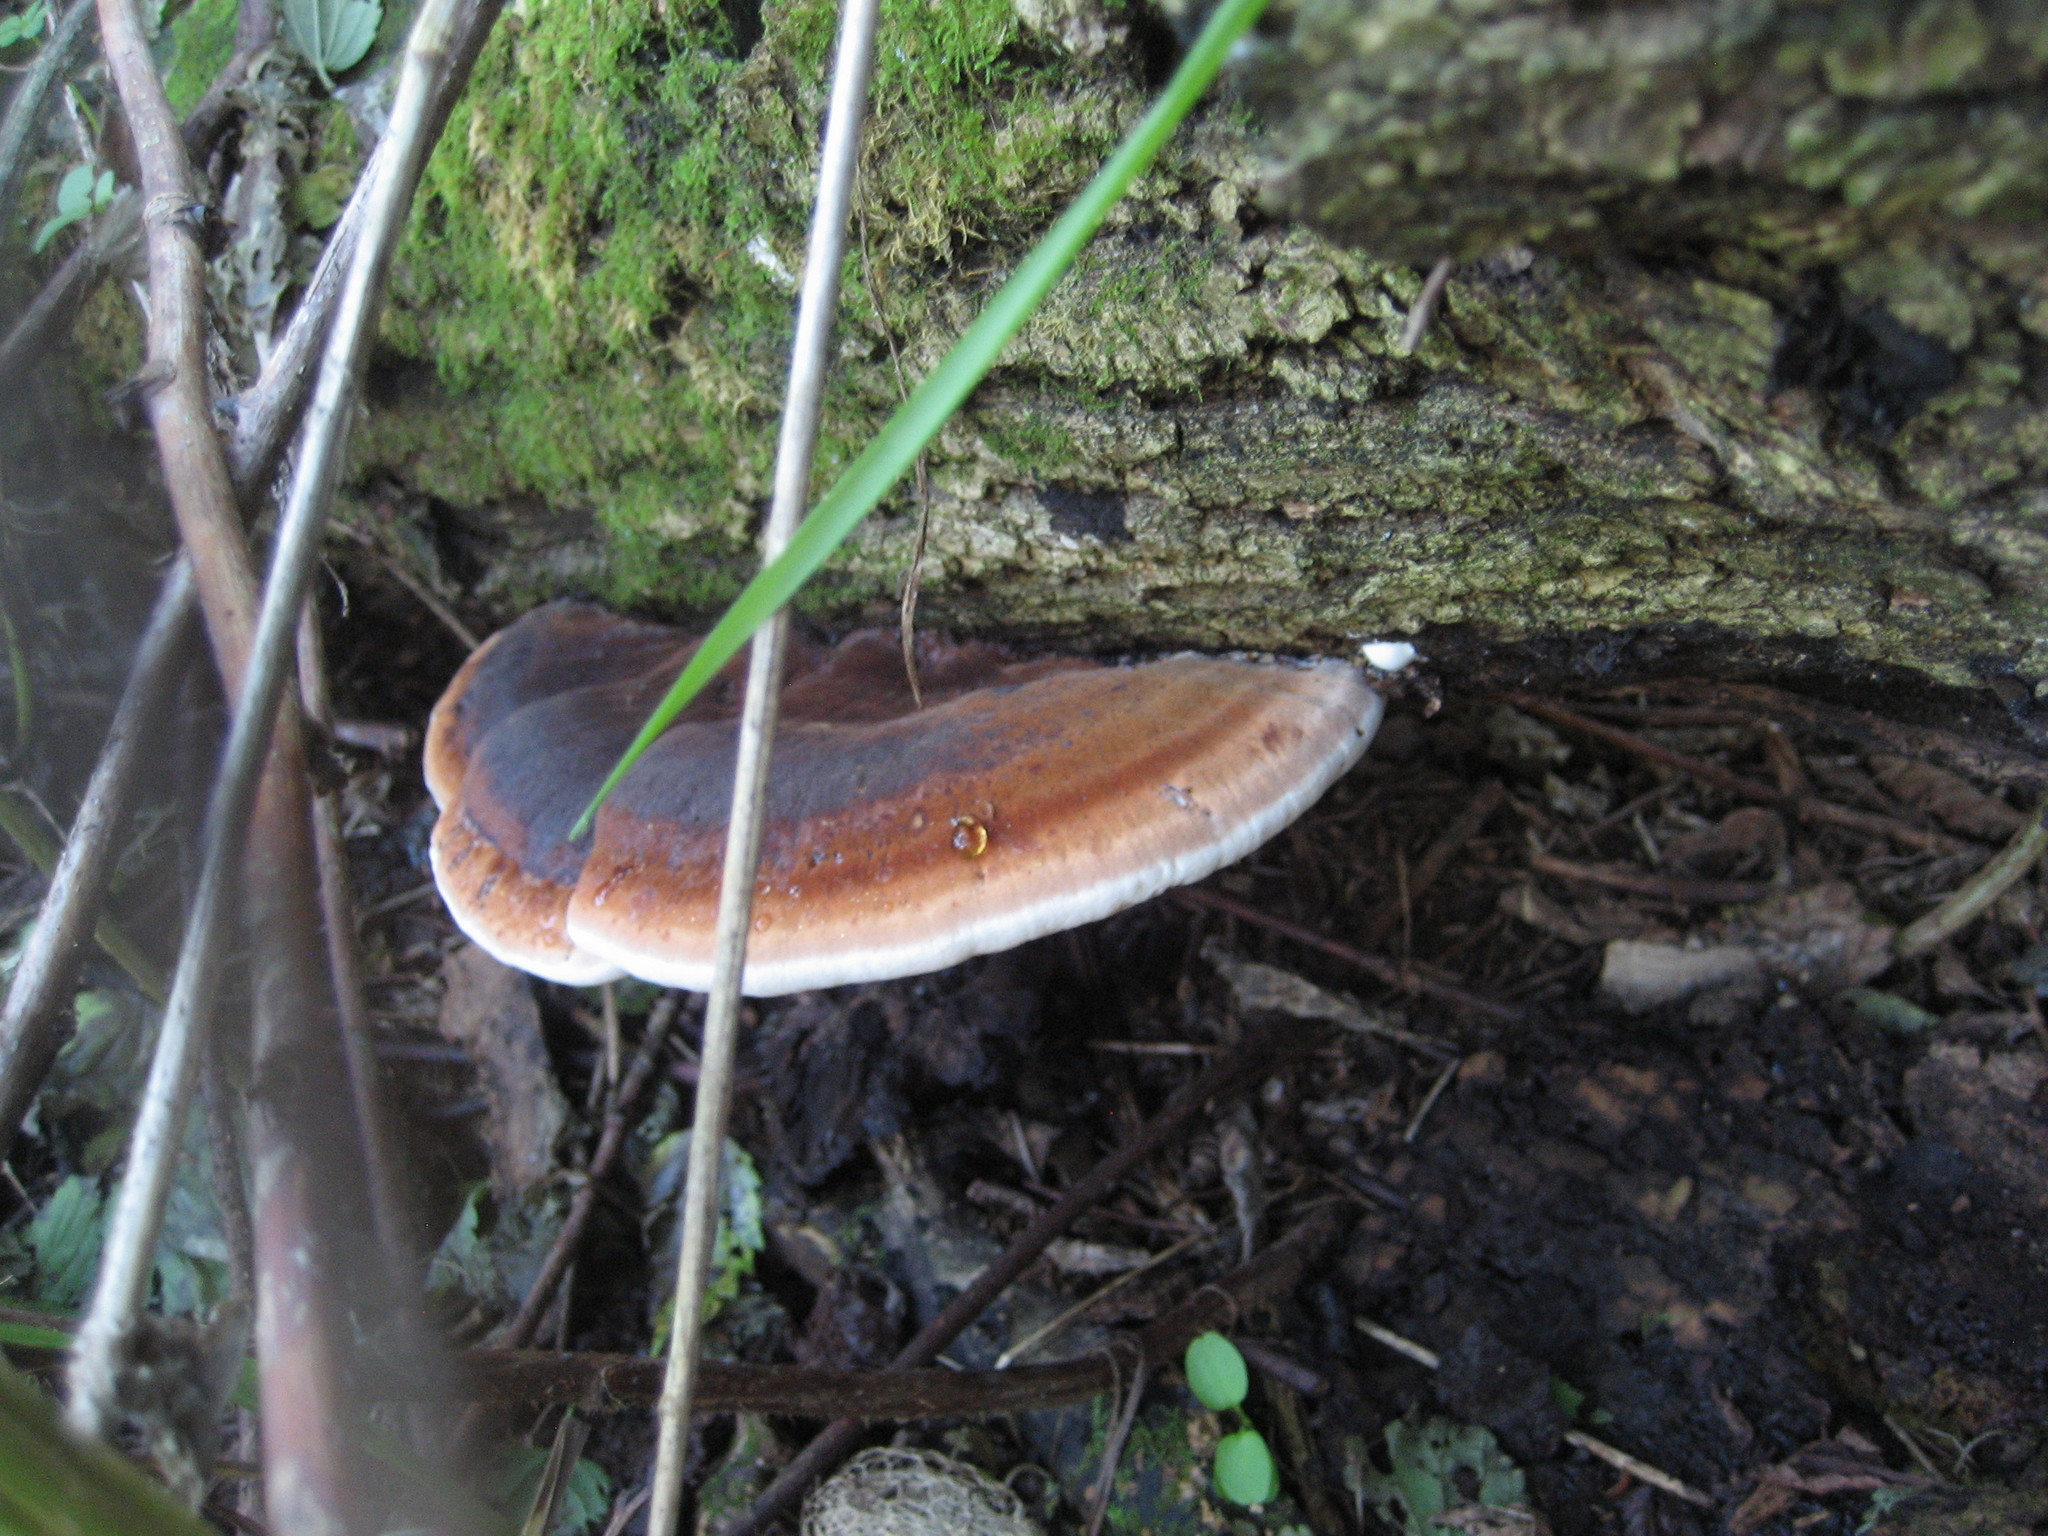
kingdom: Fungi
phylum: Basidiomycota
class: Agaricomycetes
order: Polyporales
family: Ischnodermataceae
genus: Ischnoderma
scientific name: Ischnoderma resinosum
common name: Resinous polypore
